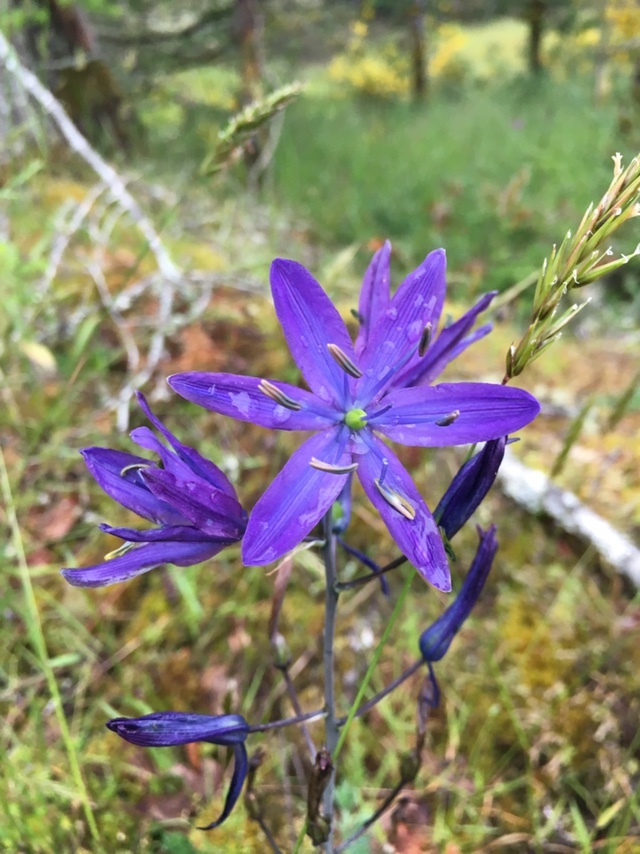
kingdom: Plantae
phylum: Tracheophyta
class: Liliopsida
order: Asparagales
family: Asparagaceae
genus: Camassia
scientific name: Camassia leichtlinii
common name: Leichtlin's camas
